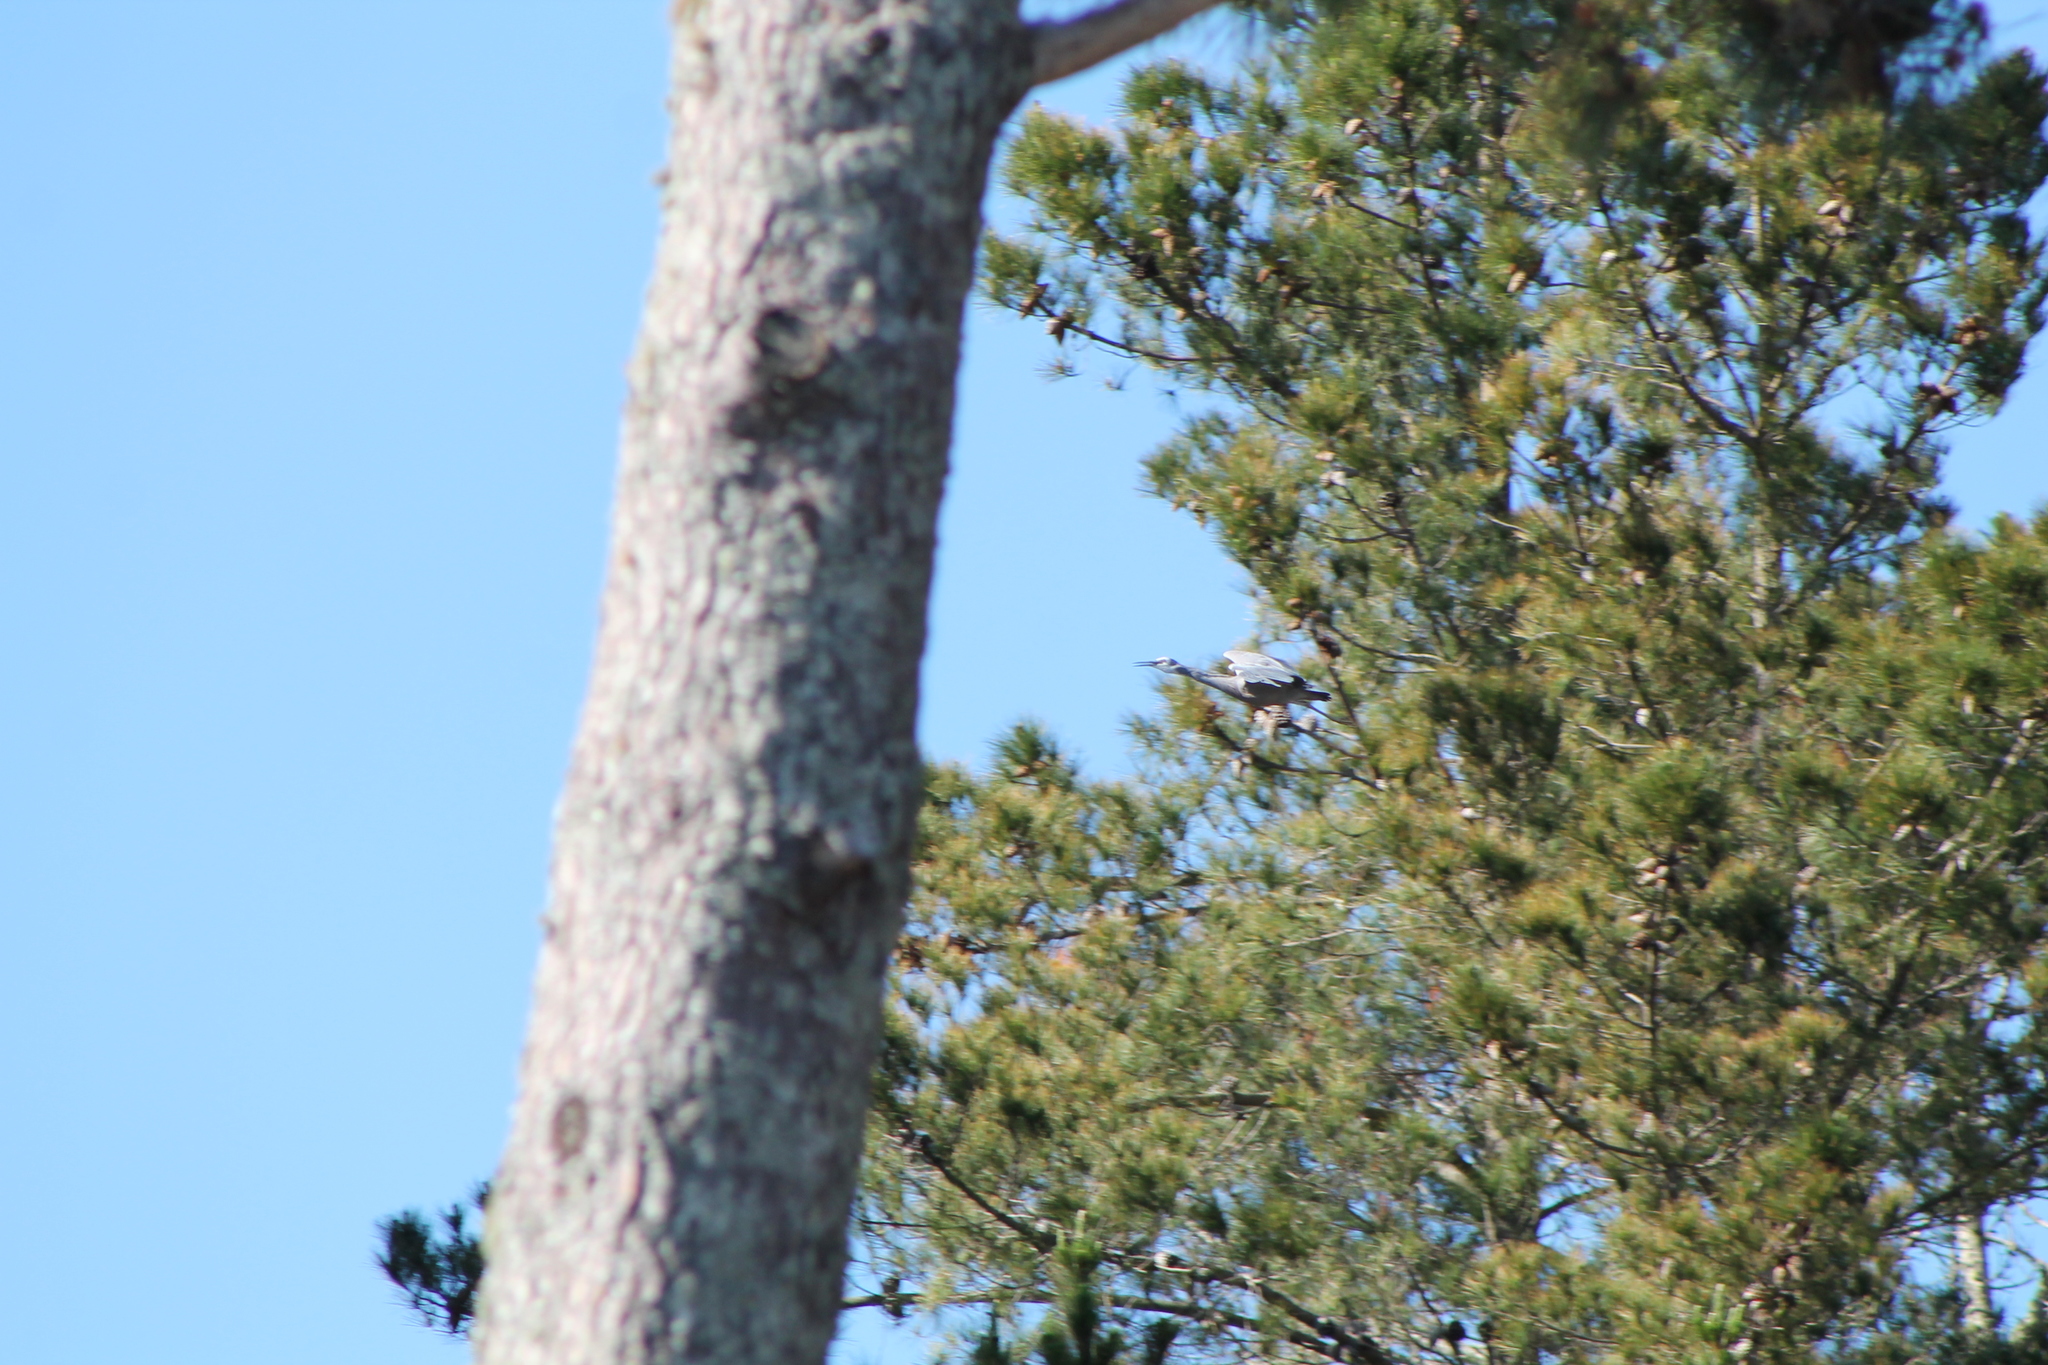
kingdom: Animalia
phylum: Chordata
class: Aves
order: Pelecaniformes
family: Ardeidae
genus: Egretta
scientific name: Egretta novaehollandiae
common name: White-faced heron
